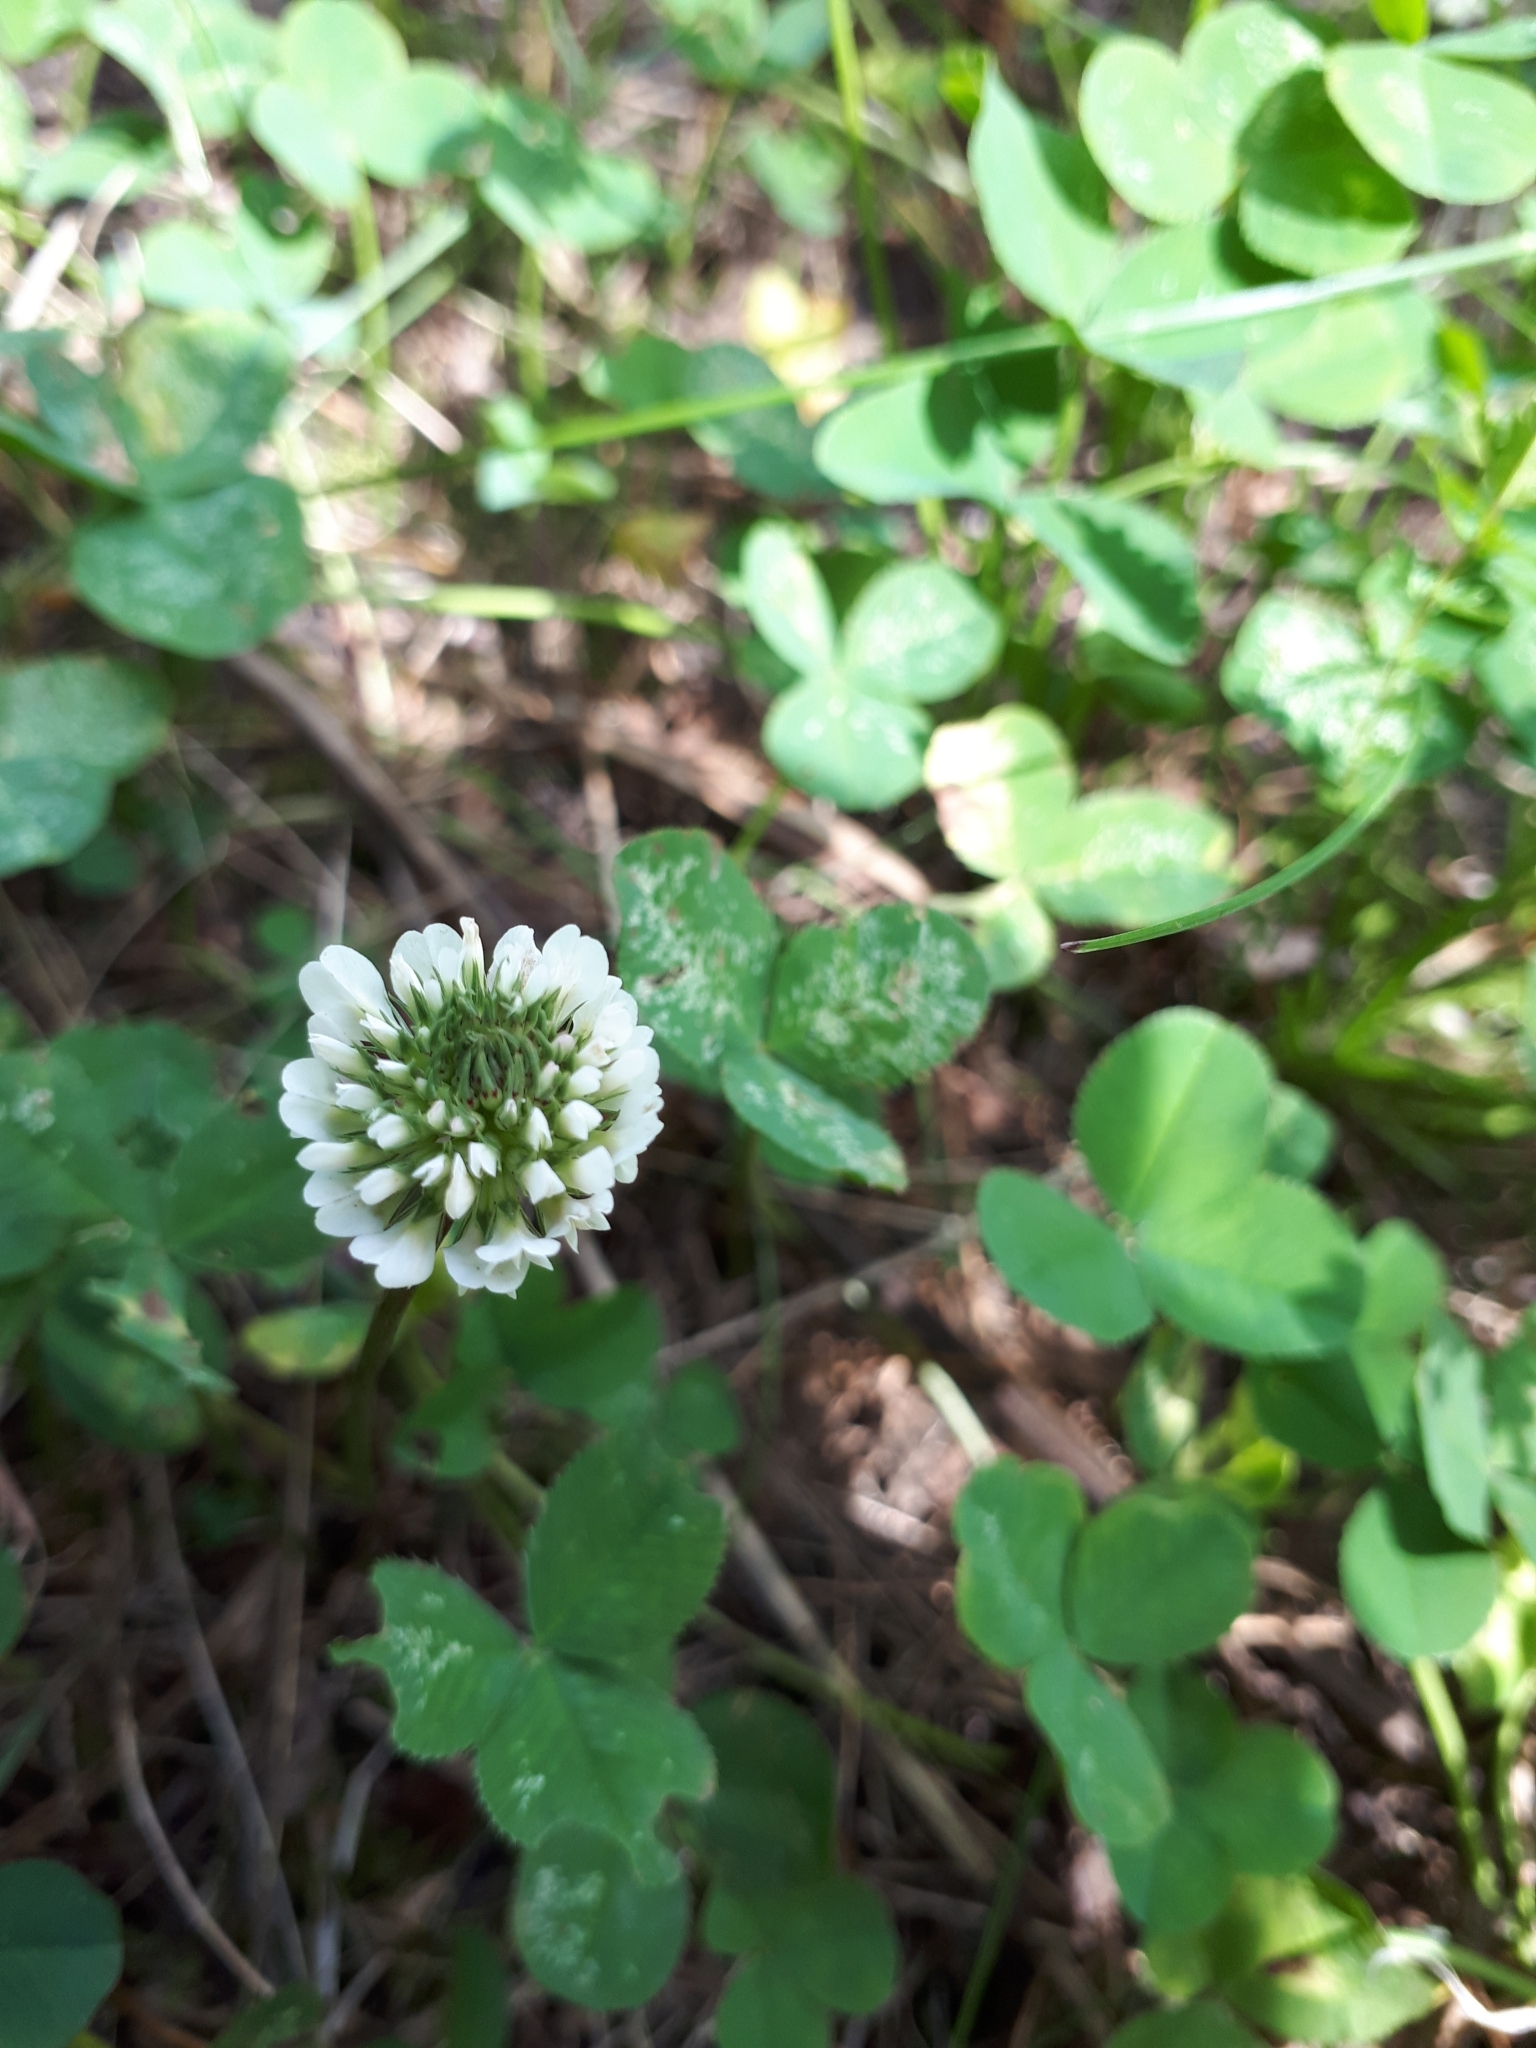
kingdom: Plantae
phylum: Tracheophyta
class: Magnoliopsida
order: Fabales
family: Fabaceae
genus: Trifolium
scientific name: Trifolium repens
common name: White clover
